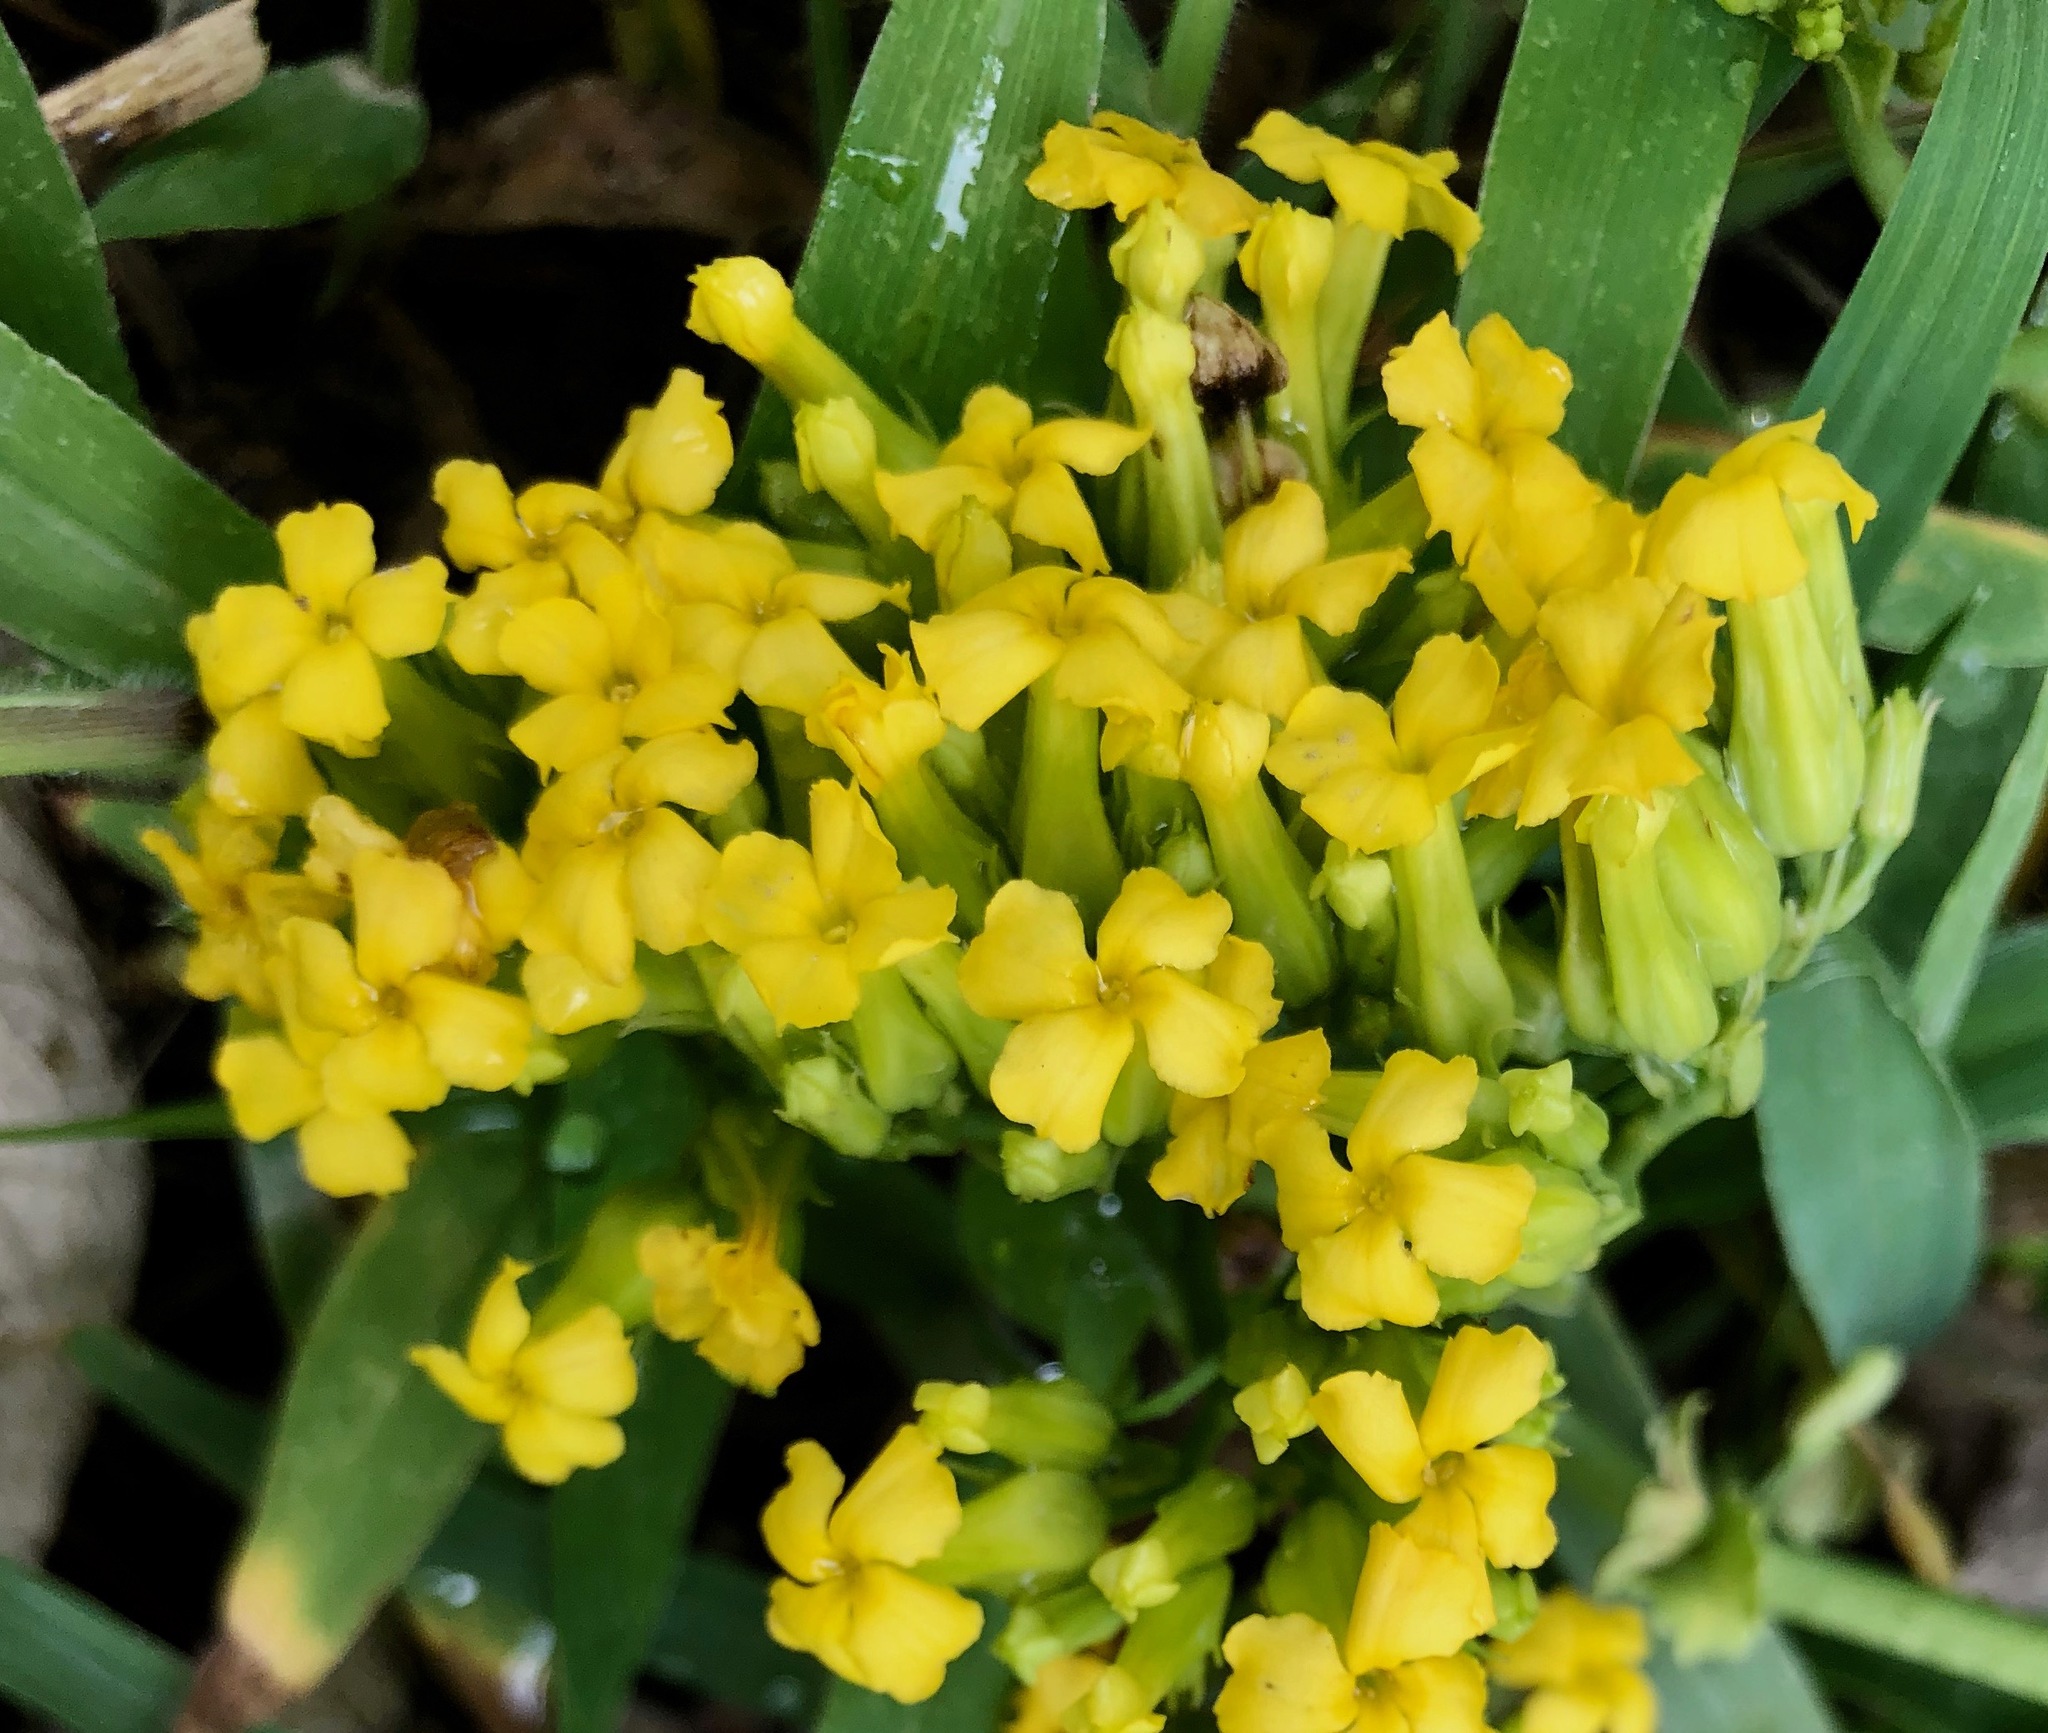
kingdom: Plantae
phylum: Tracheophyta
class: Magnoliopsida
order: Saxifragales
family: Crassulaceae
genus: Kalanchoe
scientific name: Kalanchoe densiflora
